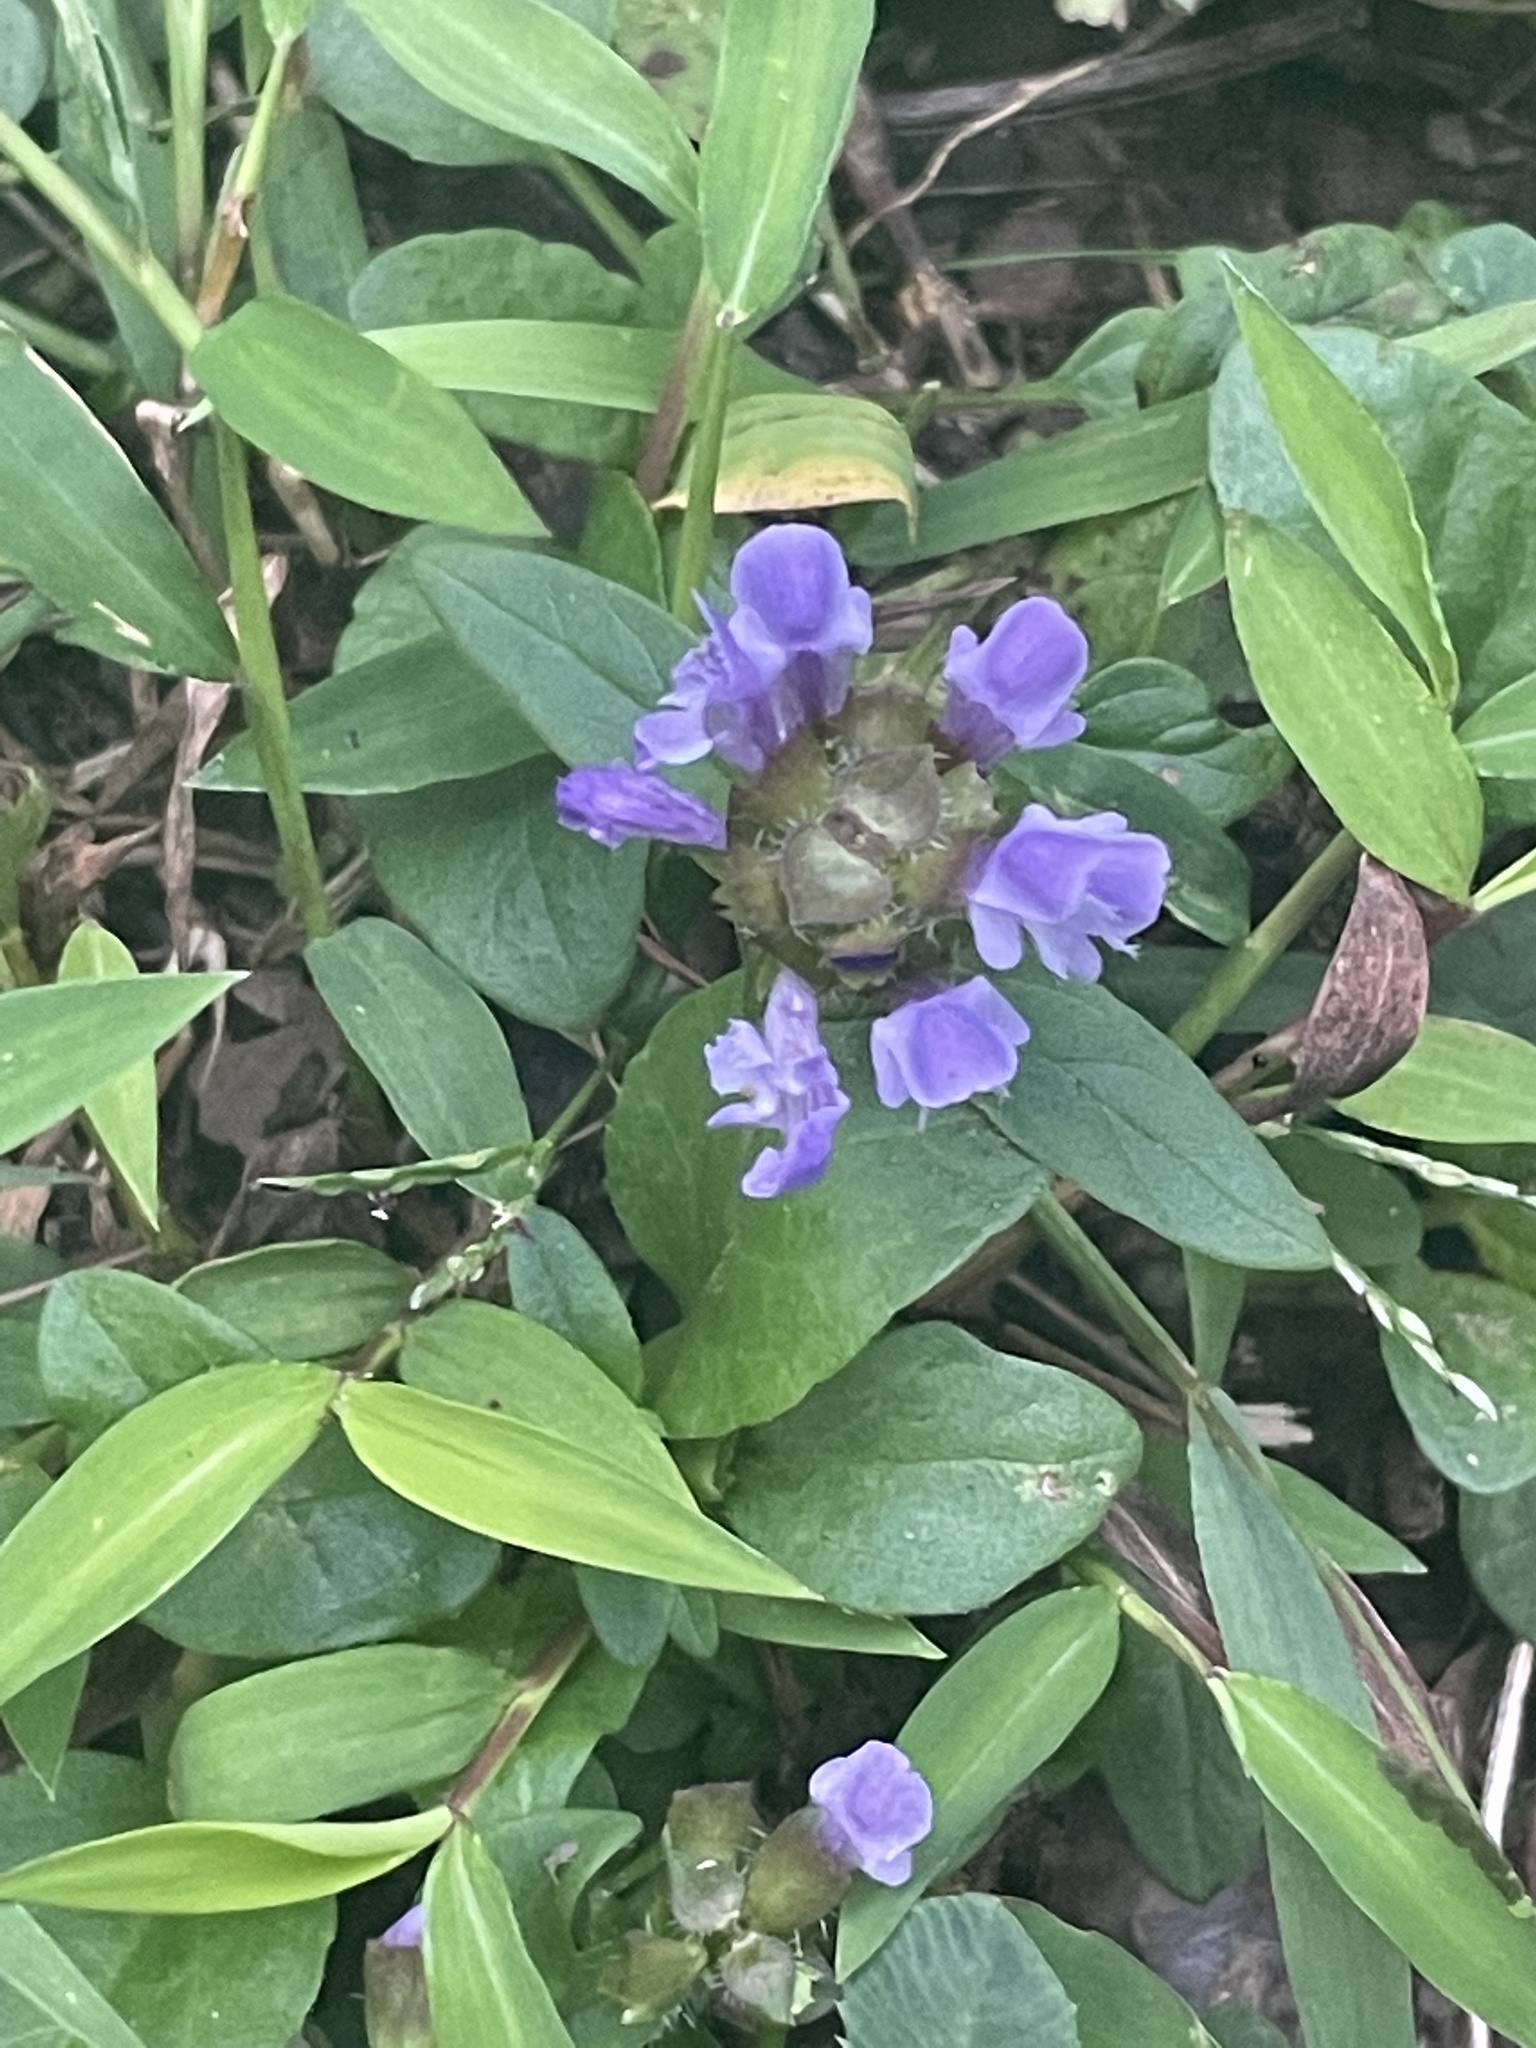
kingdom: Plantae
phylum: Tracheophyta
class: Magnoliopsida
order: Lamiales
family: Lamiaceae
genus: Prunella
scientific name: Prunella vulgaris
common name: Heal-all
